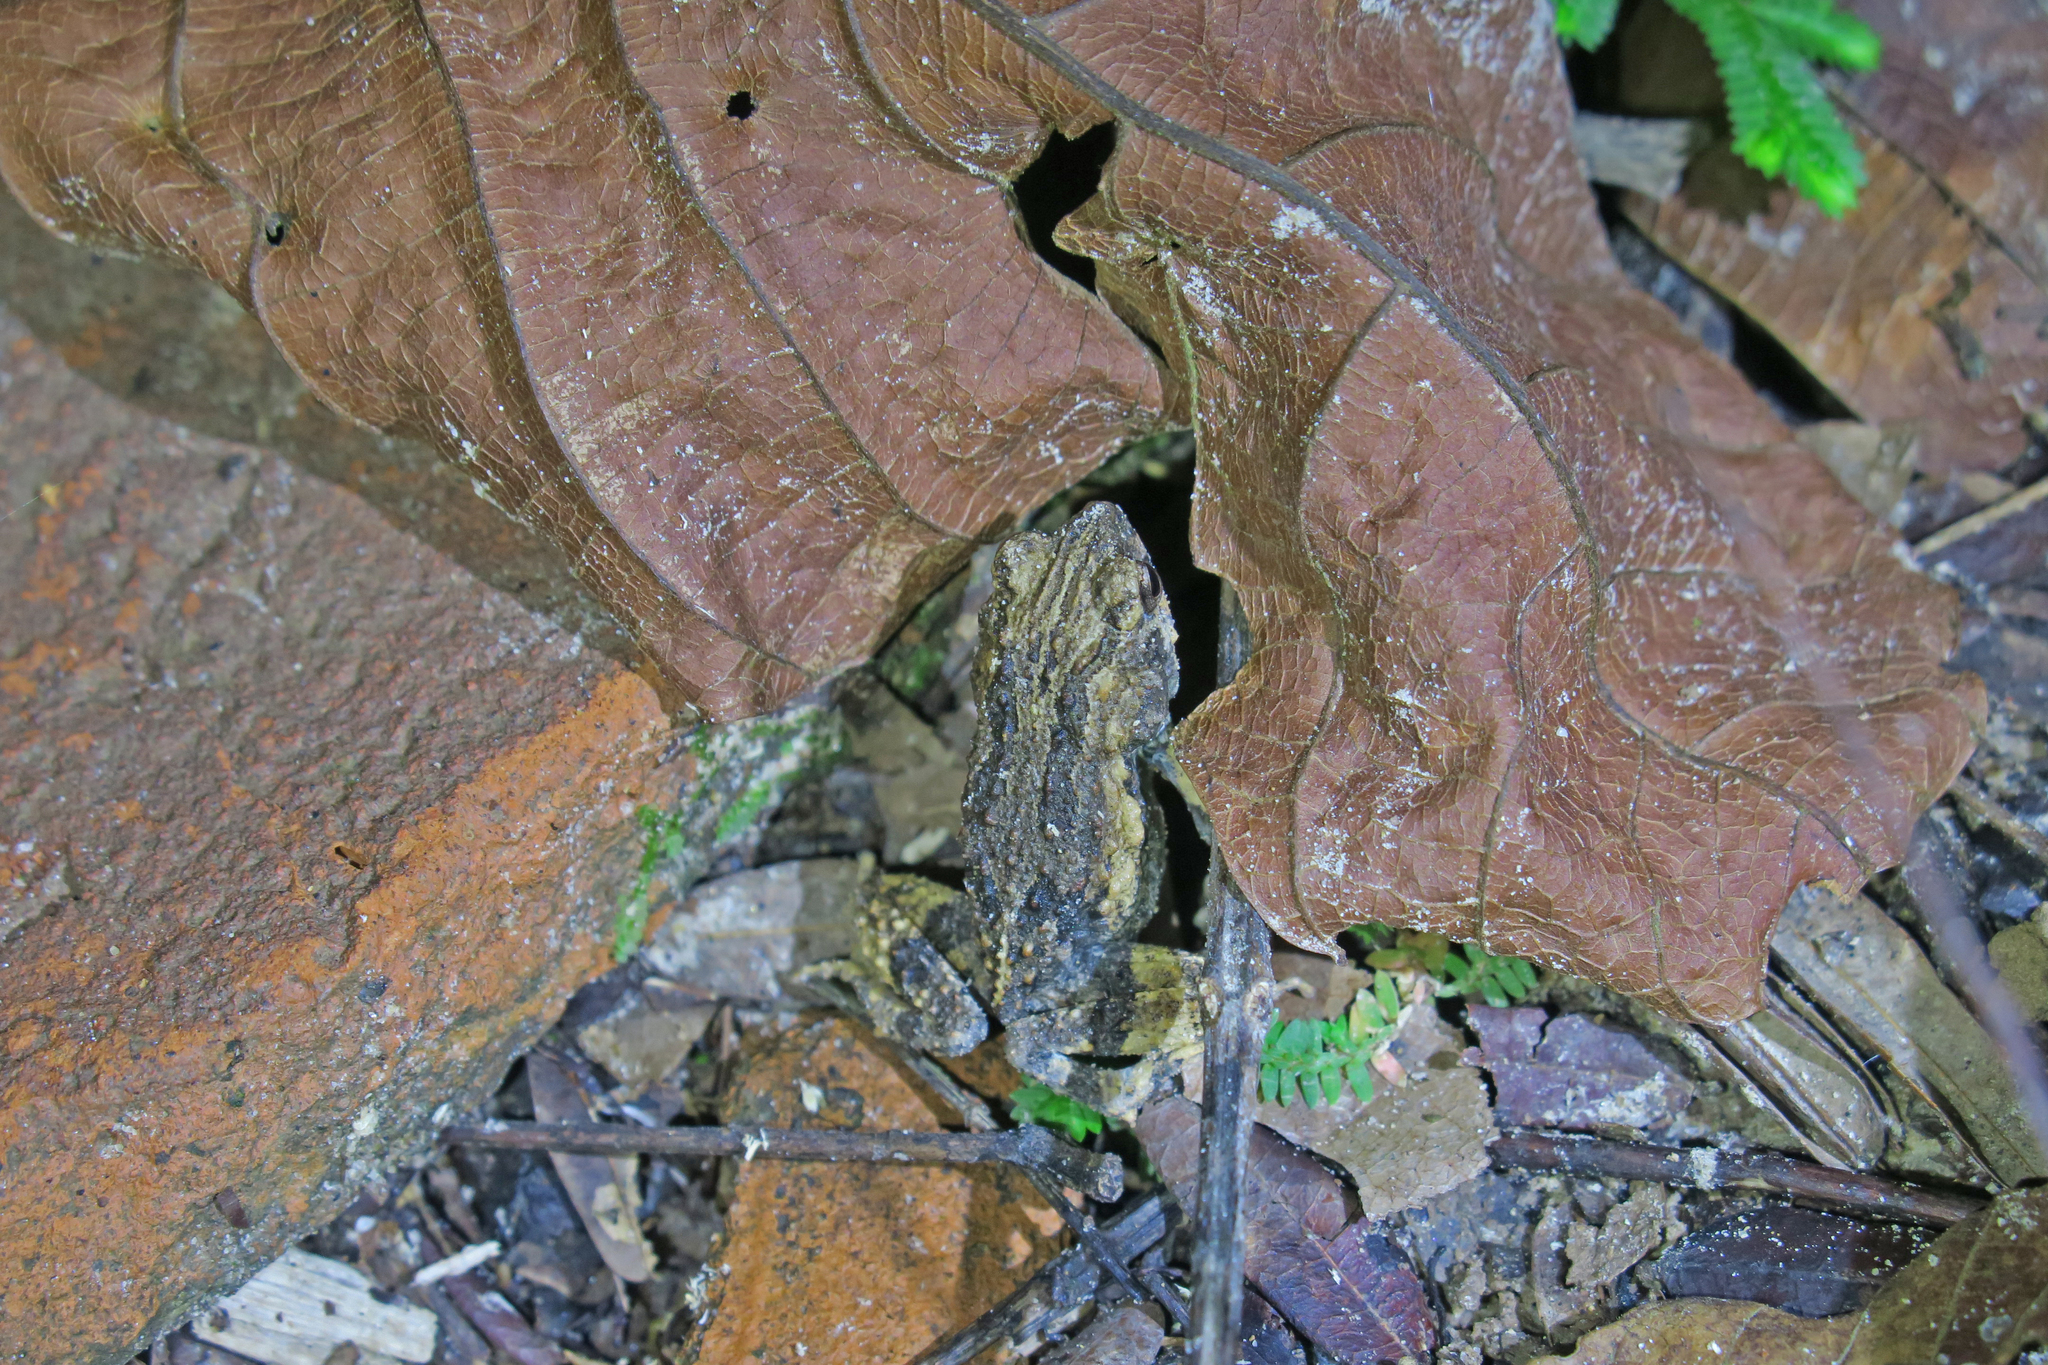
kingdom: Animalia
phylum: Chordata
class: Amphibia
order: Anura
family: Leptodactylidae
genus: Engystomops
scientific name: Engystomops pustulosus
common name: Tungara frog
